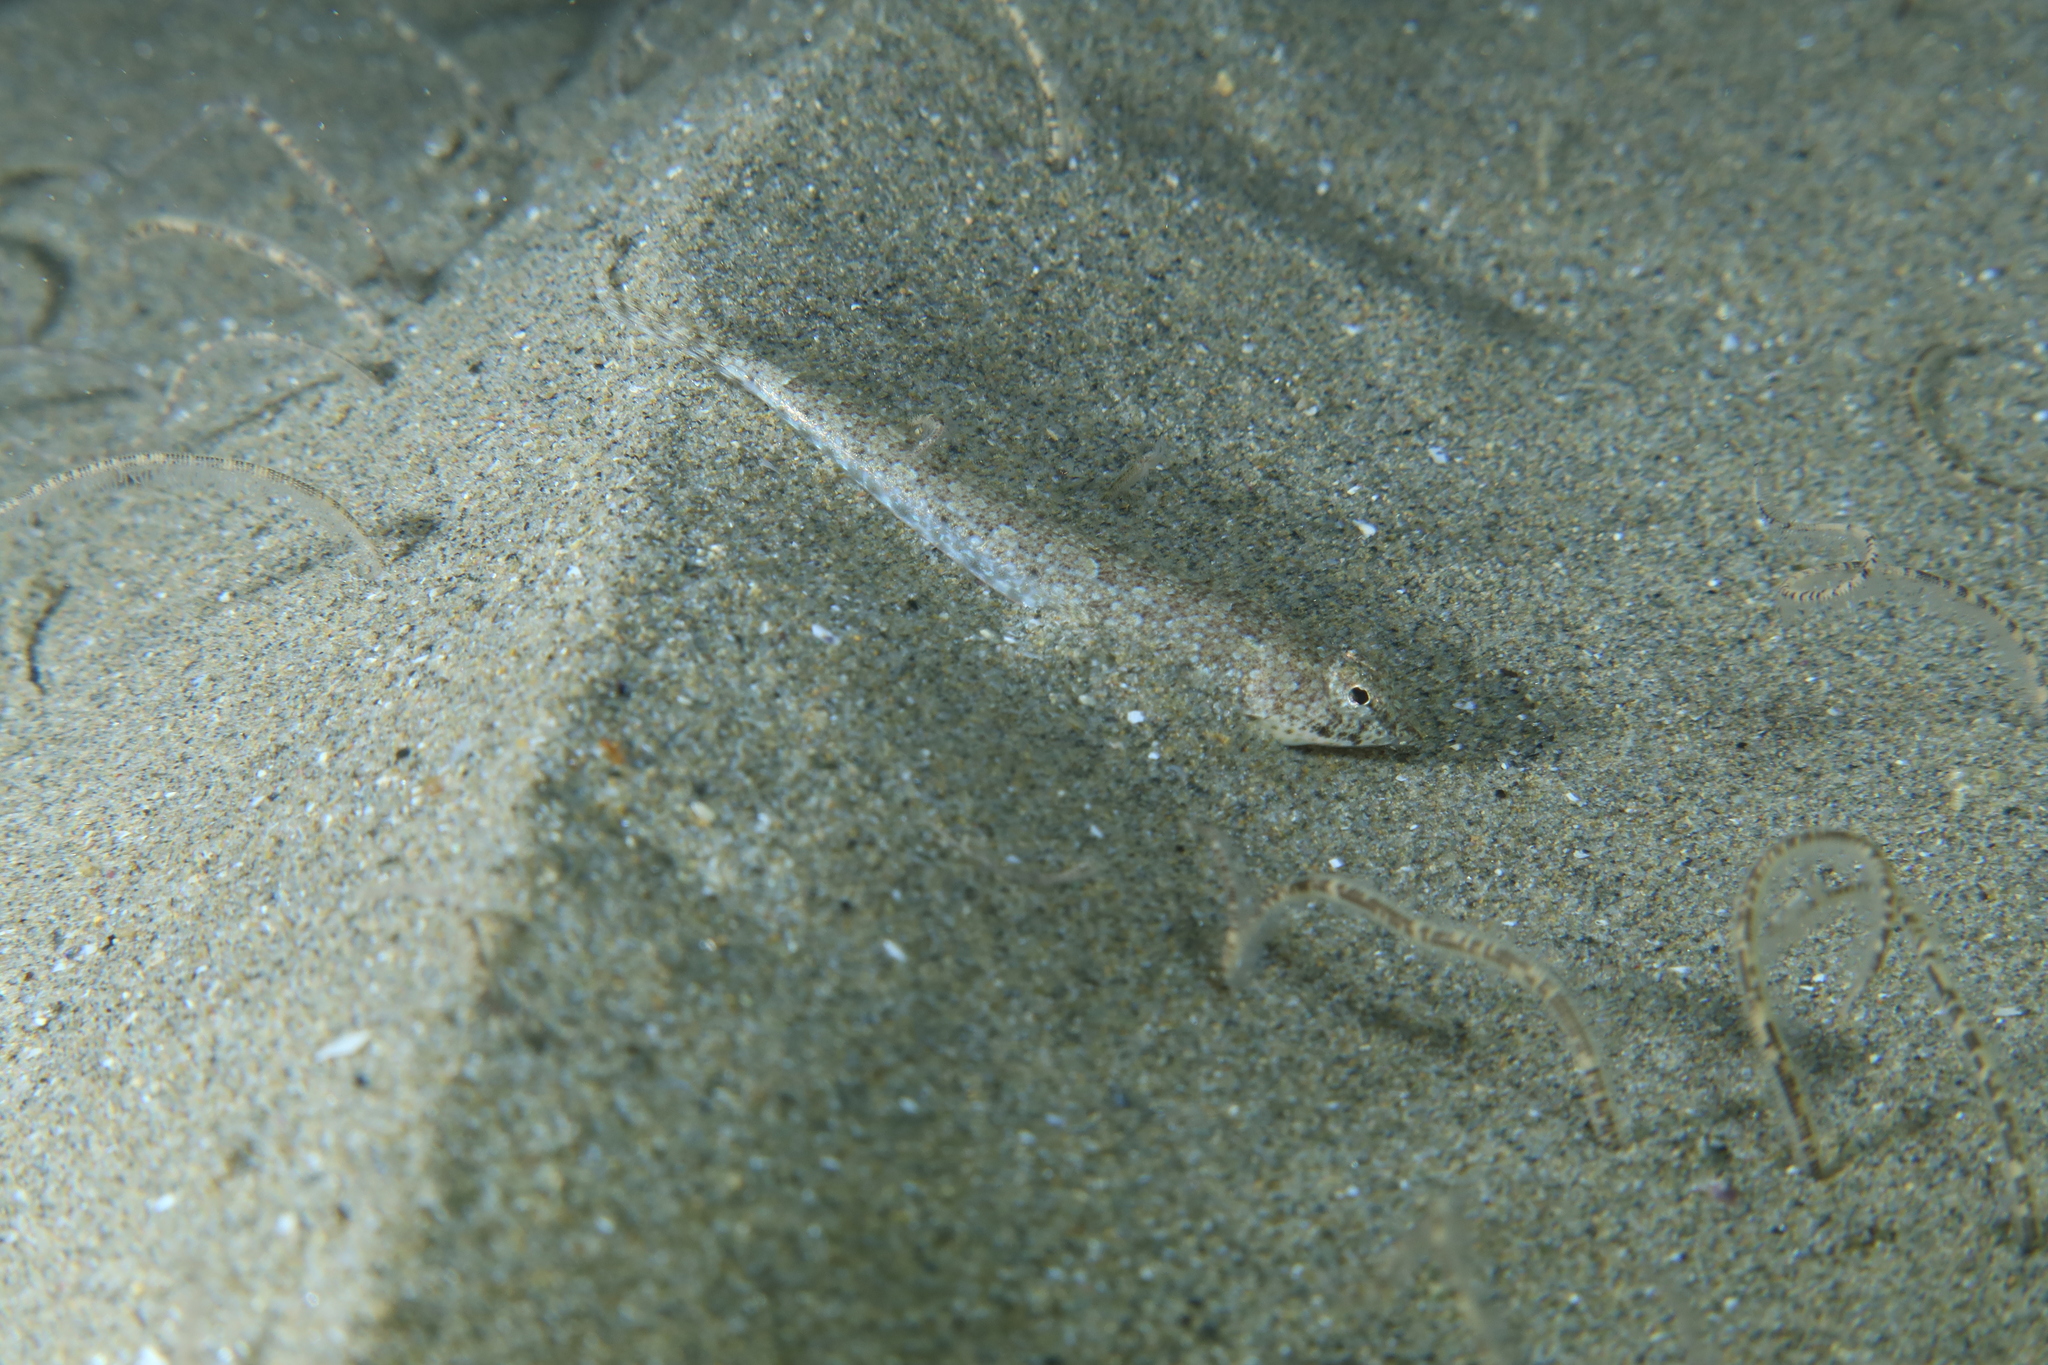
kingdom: Animalia
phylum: Chordata
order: Perciformes
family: Callionymidae
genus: Callionymus
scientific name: Callionymus risso
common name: Risso’s dragonet
